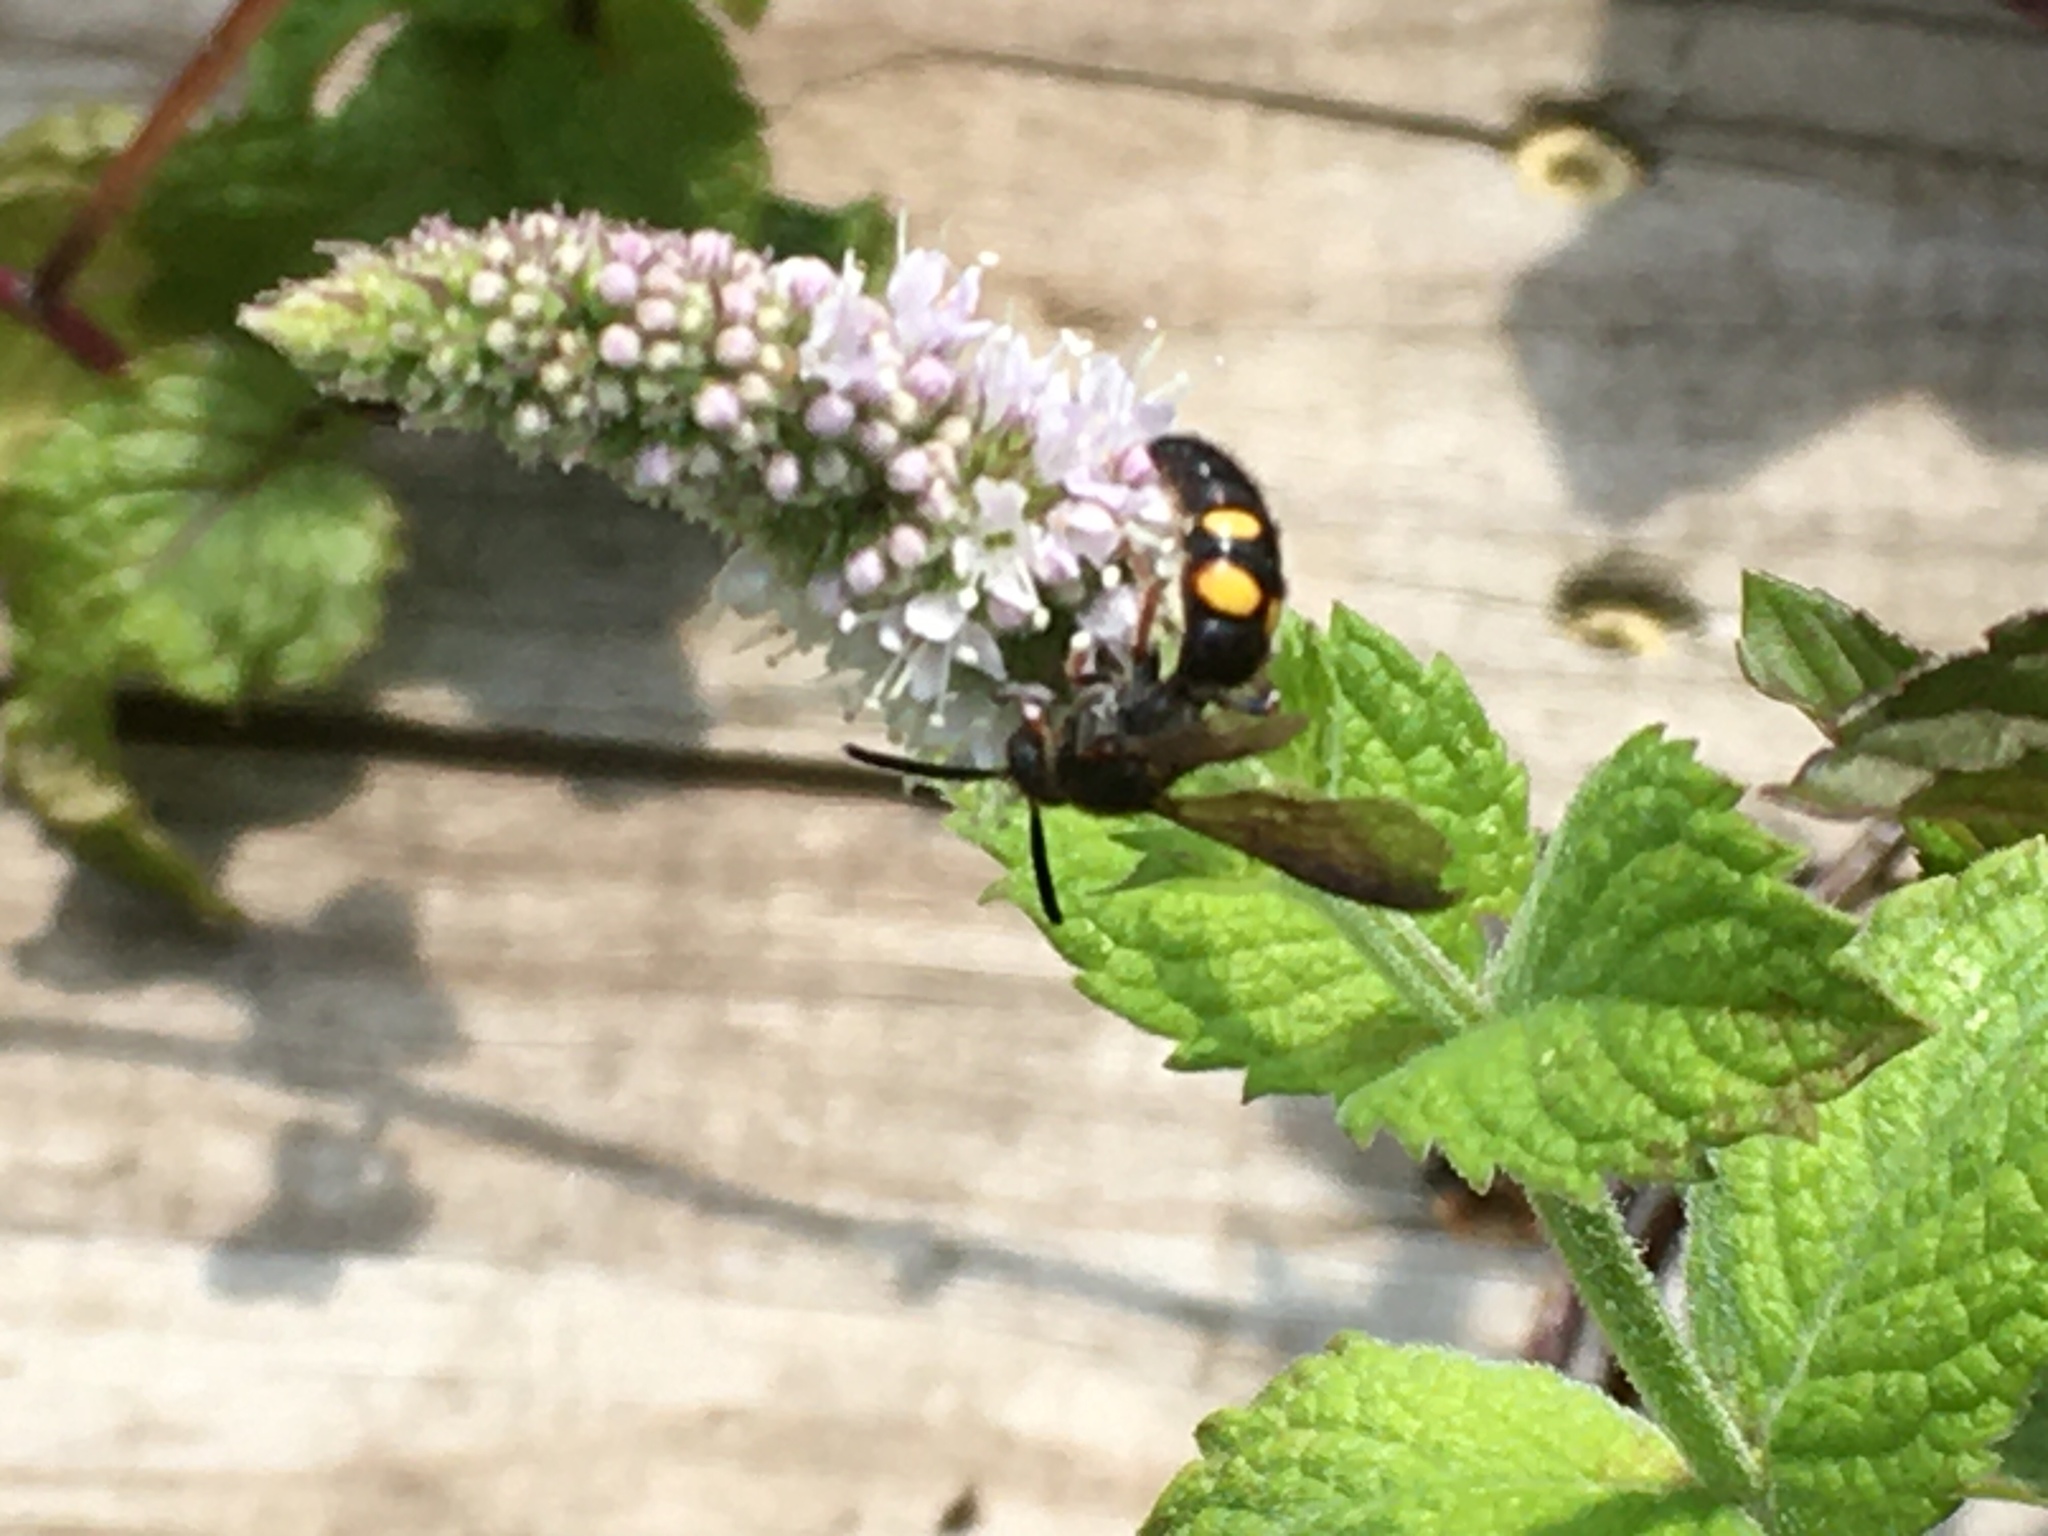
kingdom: Animalia
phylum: Arthropoda
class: Insecta
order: Hymenoptera
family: Scoliidae
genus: Scolia
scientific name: Scolia nobilitata
